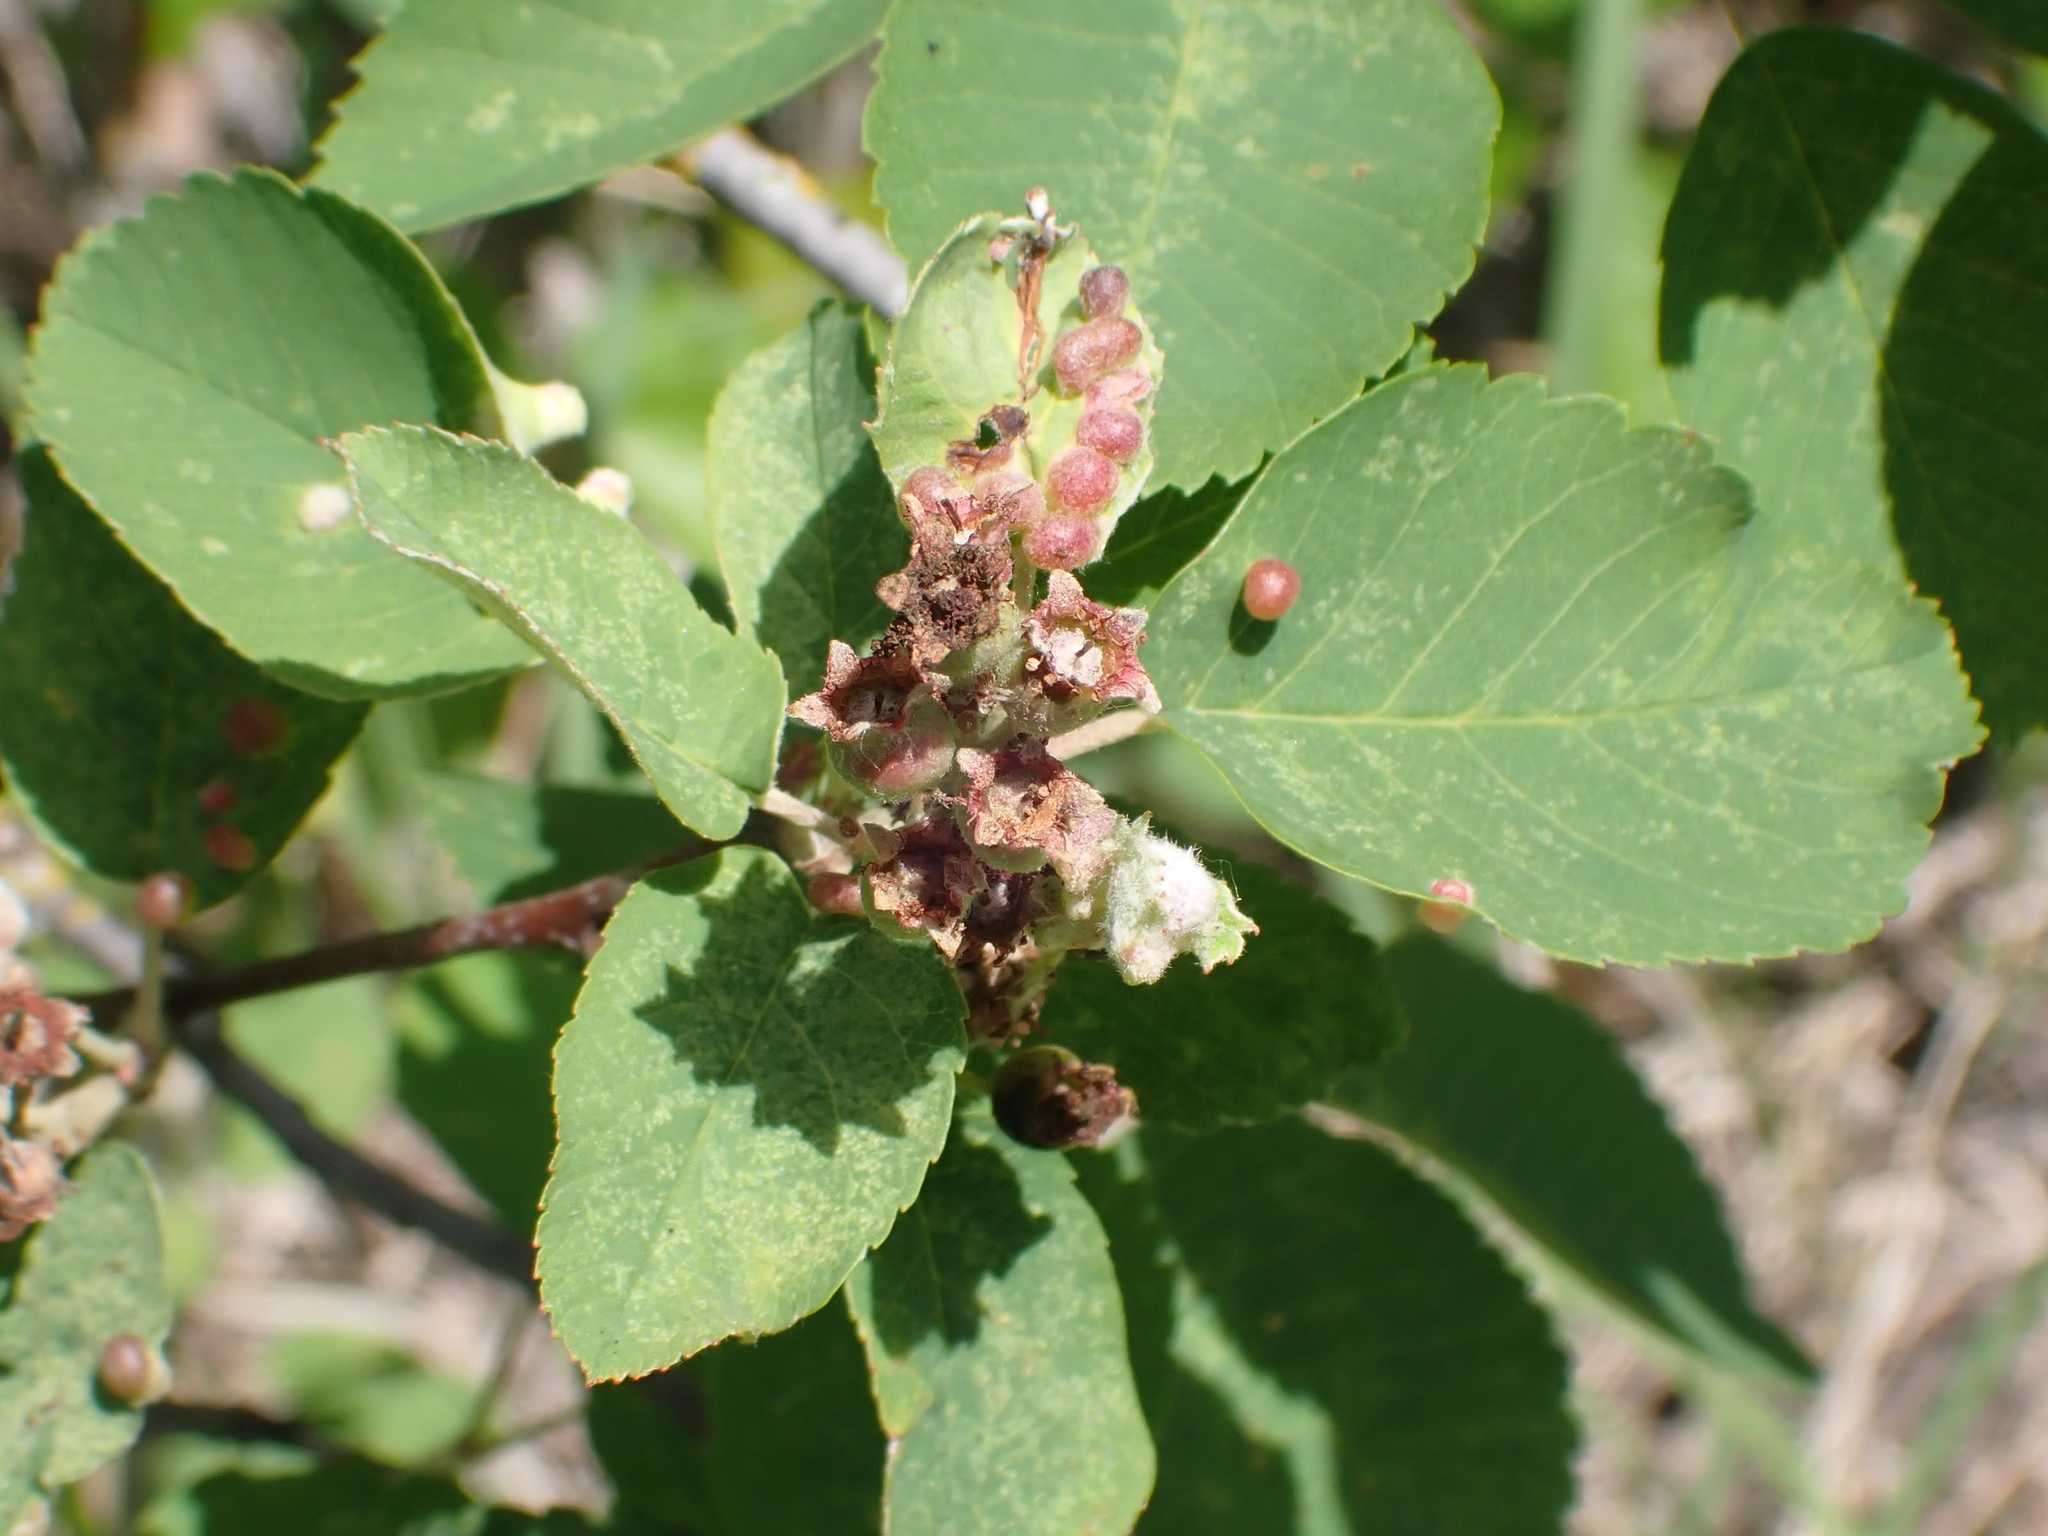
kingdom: Plantae
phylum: Tracheophyta
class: Magnoliopsida
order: Rosales
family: Rosaceae
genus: Amelanchier
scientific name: Amelanchier alnifolia
